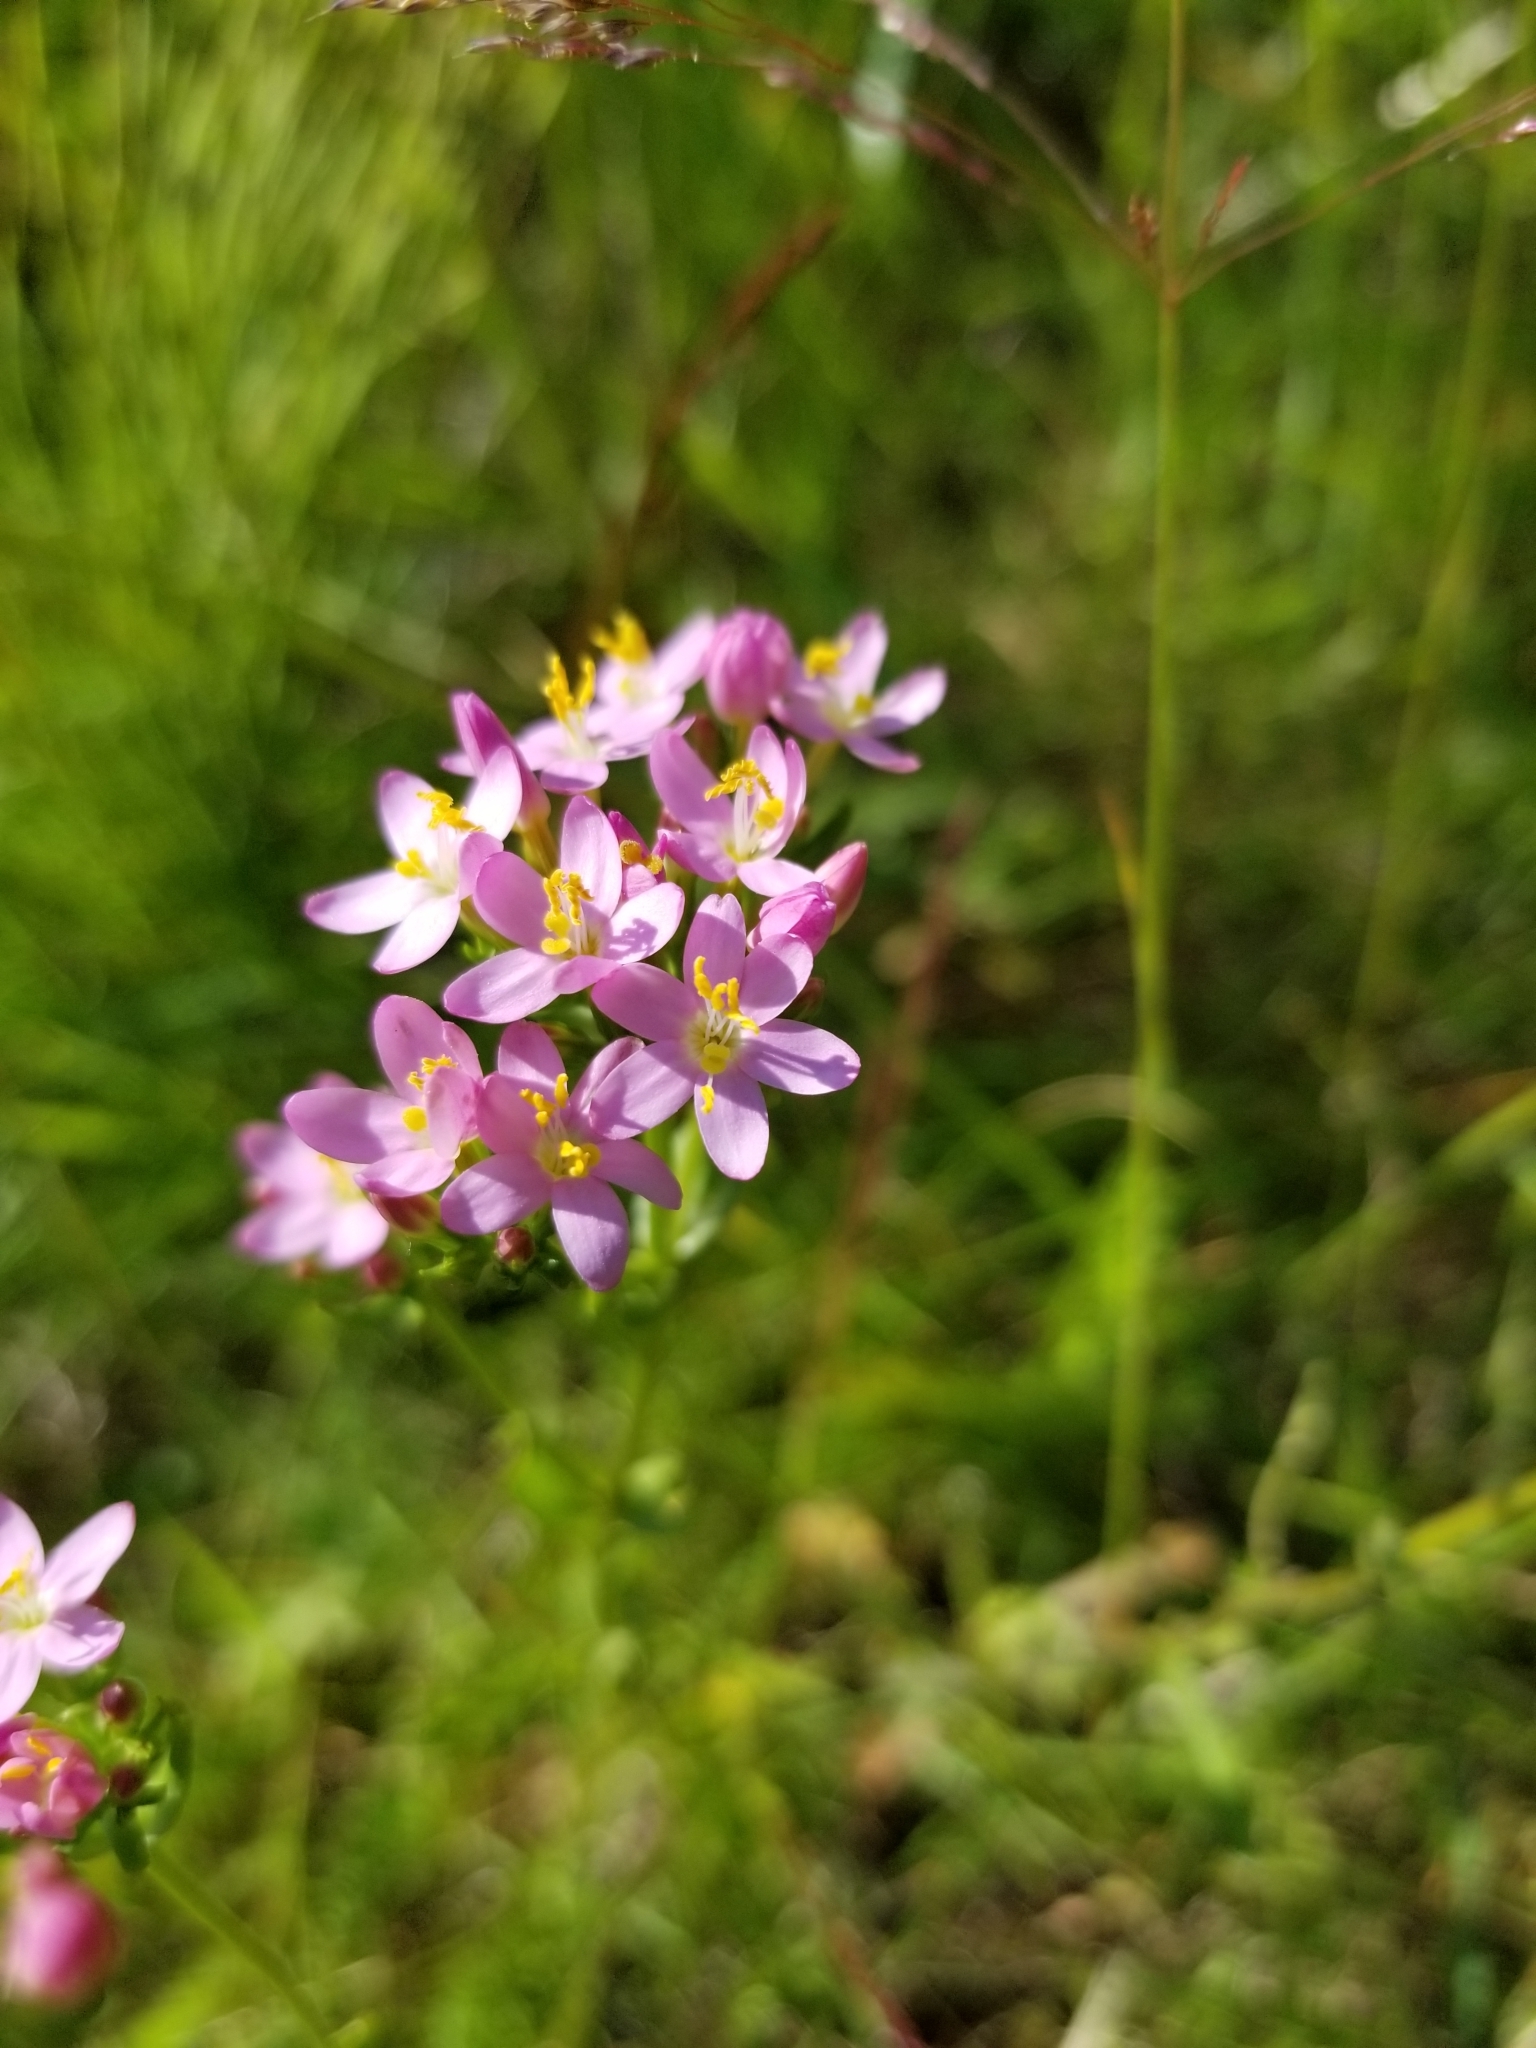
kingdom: Plantae
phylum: Tracheophyta
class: Magnoliopsida
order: Gentianales
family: Gentianaceae
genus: Centaurium
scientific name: Centaurium erythraea
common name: Common centaury
